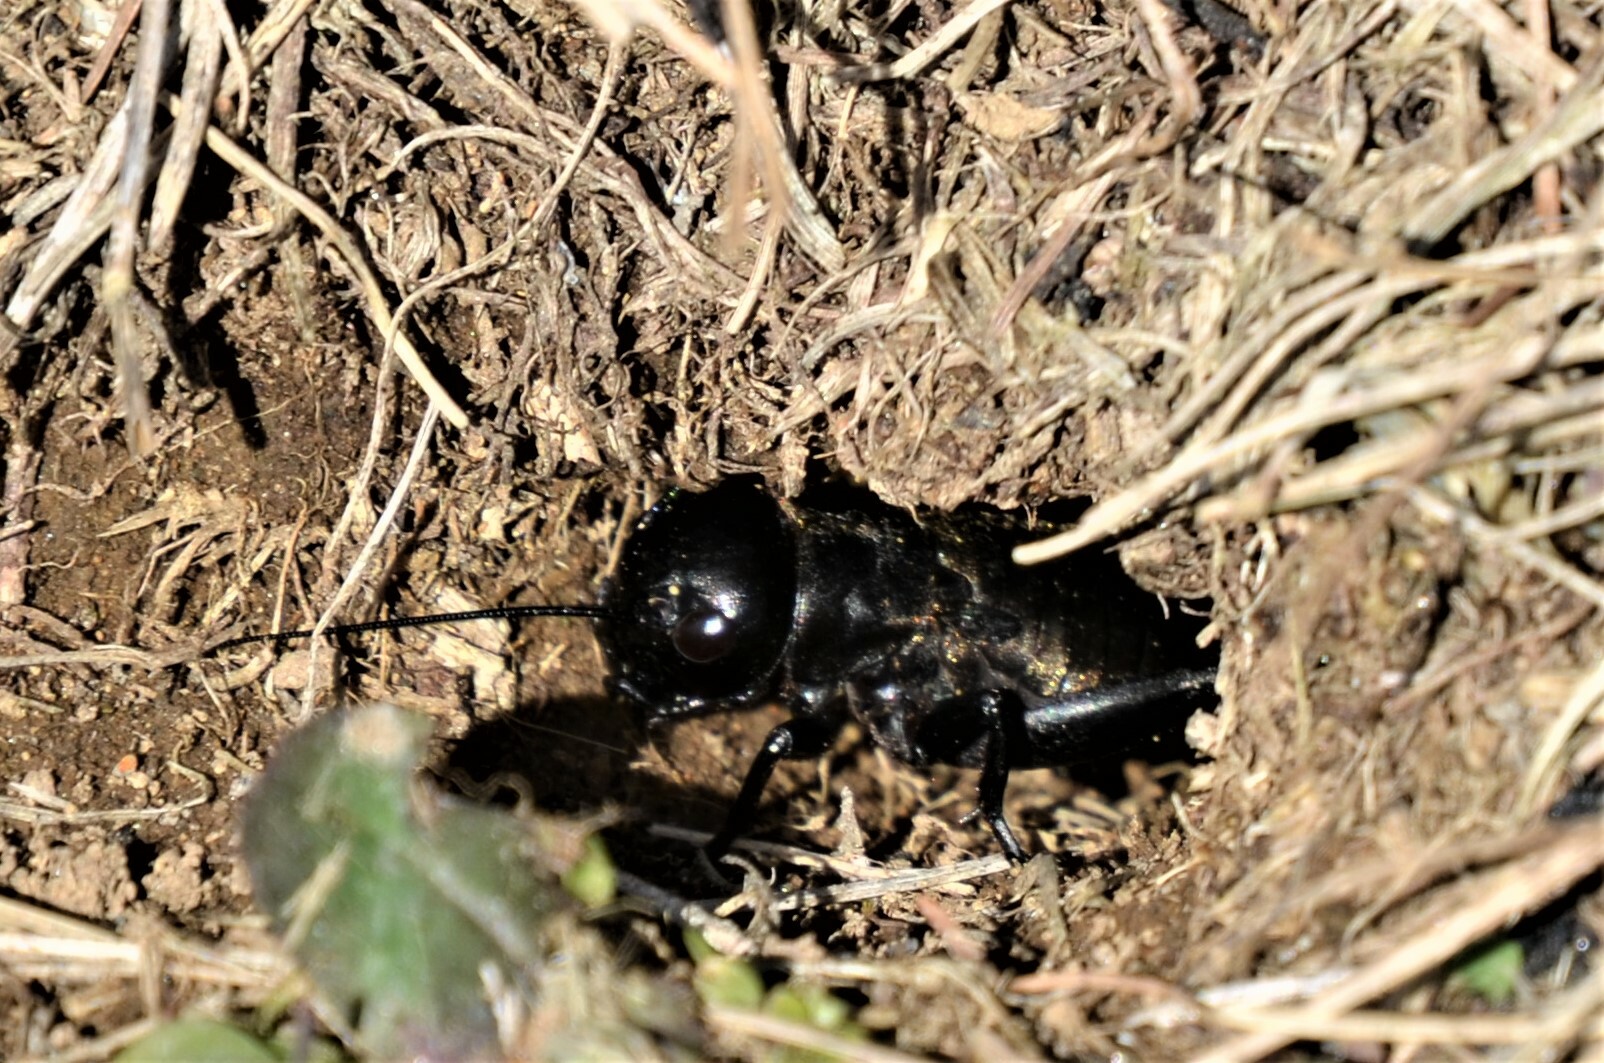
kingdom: Animalia
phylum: Arthropoda
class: Insecta
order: Orthoptera
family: Gryllidae
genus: Gryllus
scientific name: Gryllus campestris
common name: Field cricket
